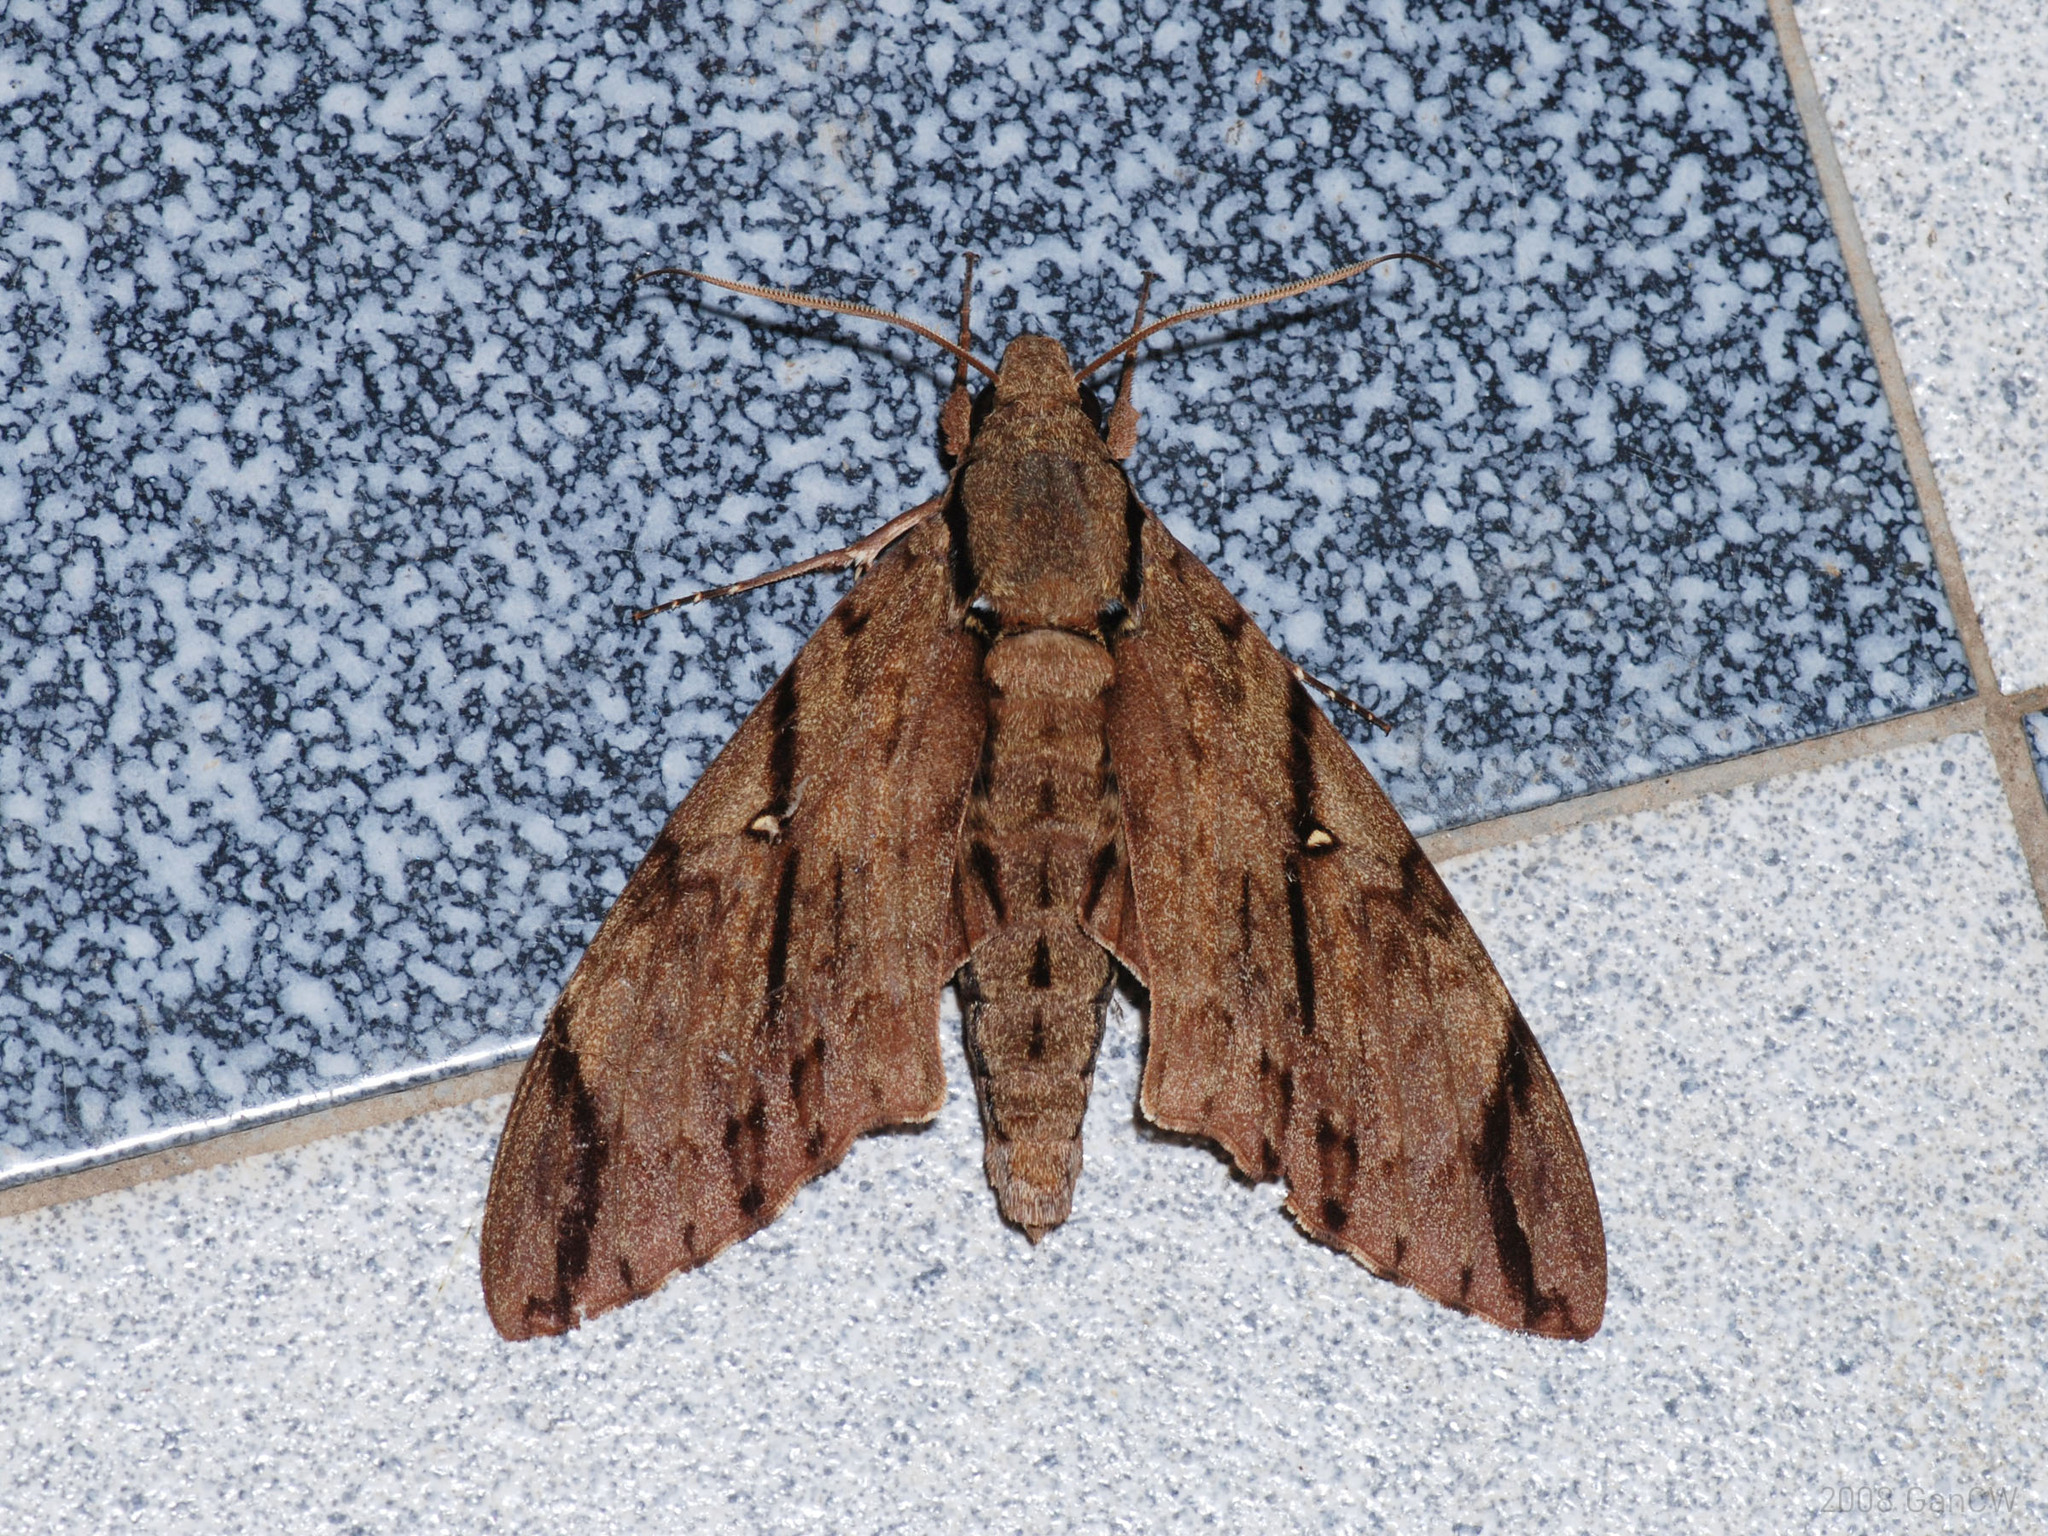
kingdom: Animalia
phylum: Arthropoda
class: Insecta
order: Lepidoptera
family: Sphingidae
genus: Cerberonoton
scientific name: Cerberonoton rubescens
